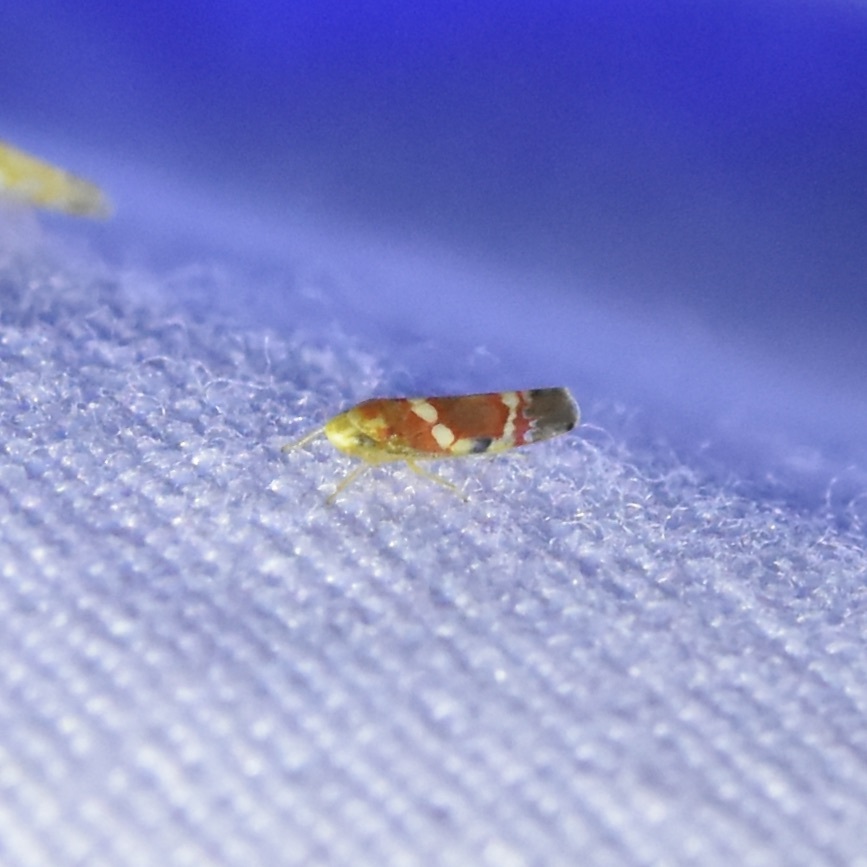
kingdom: Animalia
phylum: Arthropoda
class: Insecta
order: Hemiptera
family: Cicadellidae
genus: Erythroneura
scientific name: Erythroneura vitis
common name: Grapevine leafhopper
